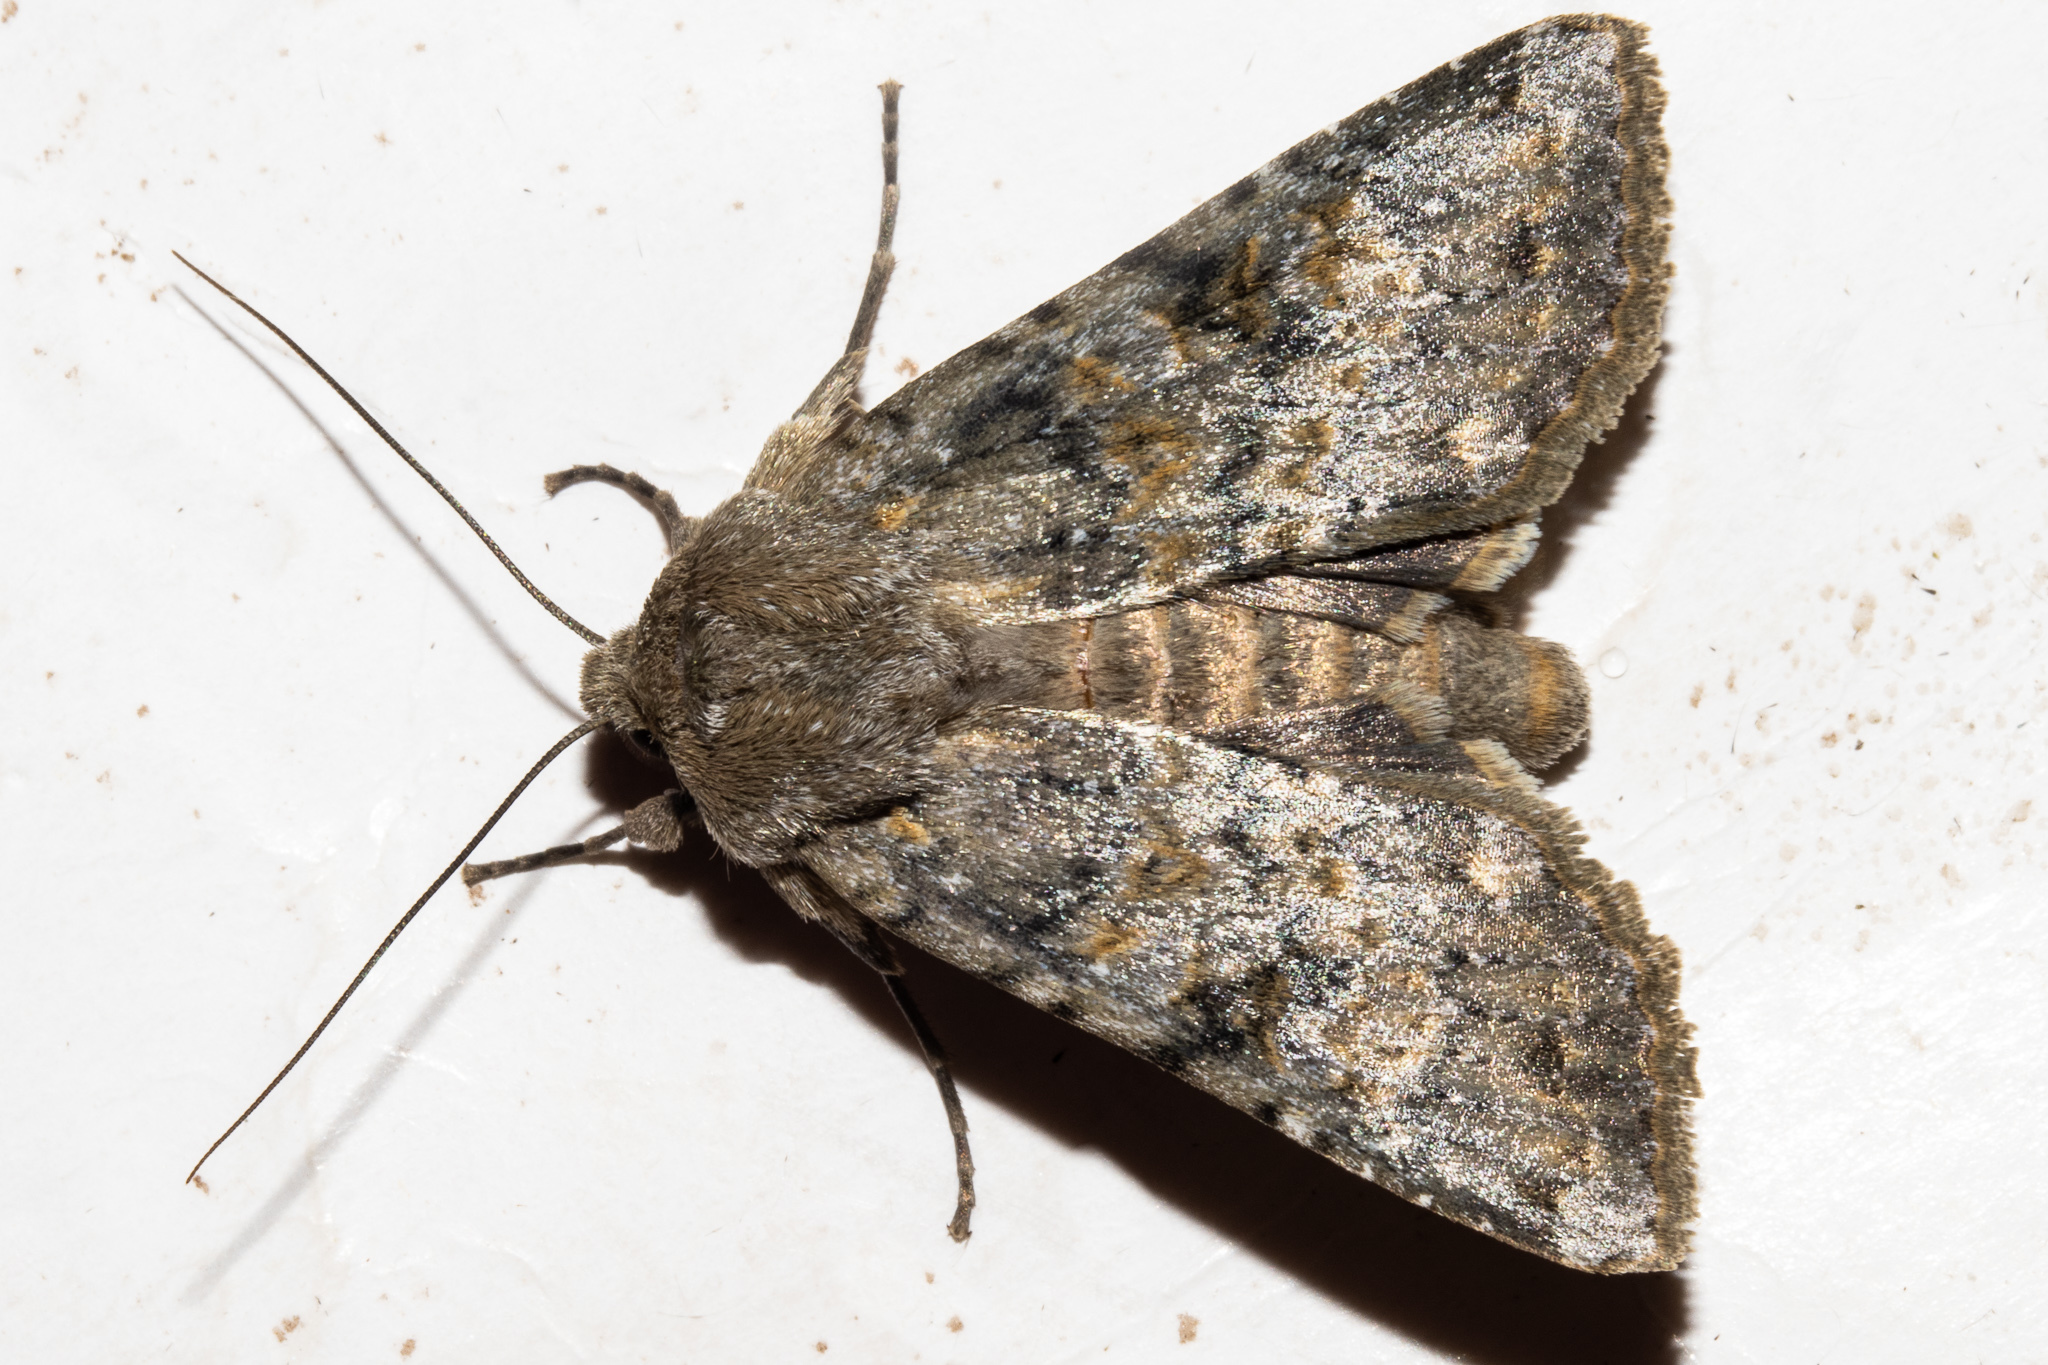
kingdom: Animalia
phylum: Arthropoda
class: Insecta
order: Lepidoptera
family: Noctuidae
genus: Ichneutica
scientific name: Ichneutica cuneata
